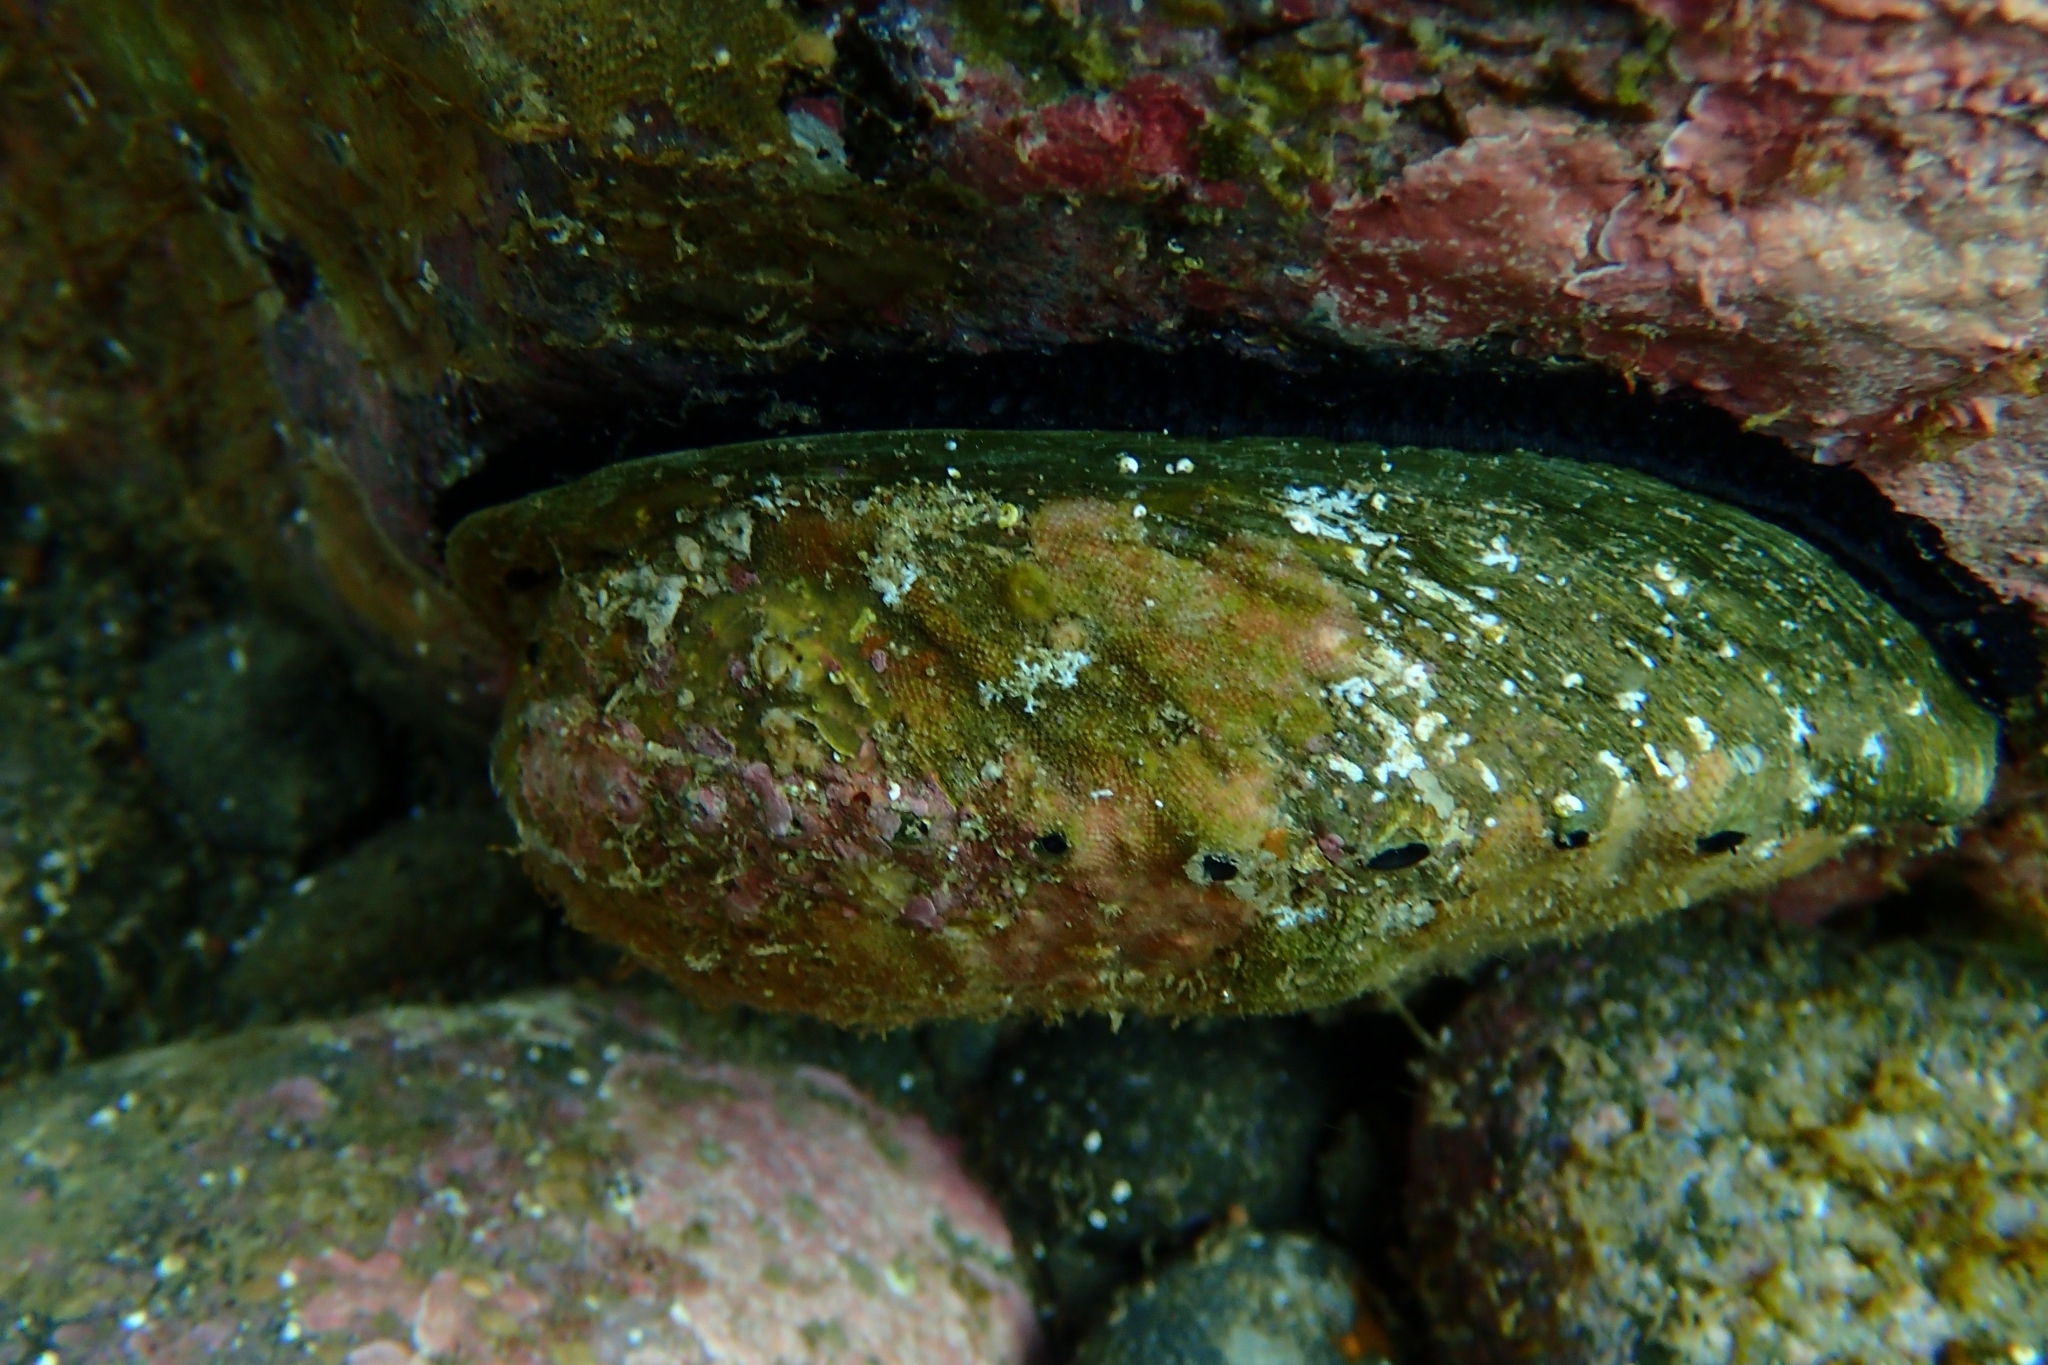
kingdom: Animalia
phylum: Mollusca
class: Gastropoda
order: Lepetellida
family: Haliotidae
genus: Haliotis
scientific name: Haliotis iris
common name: Abalone
